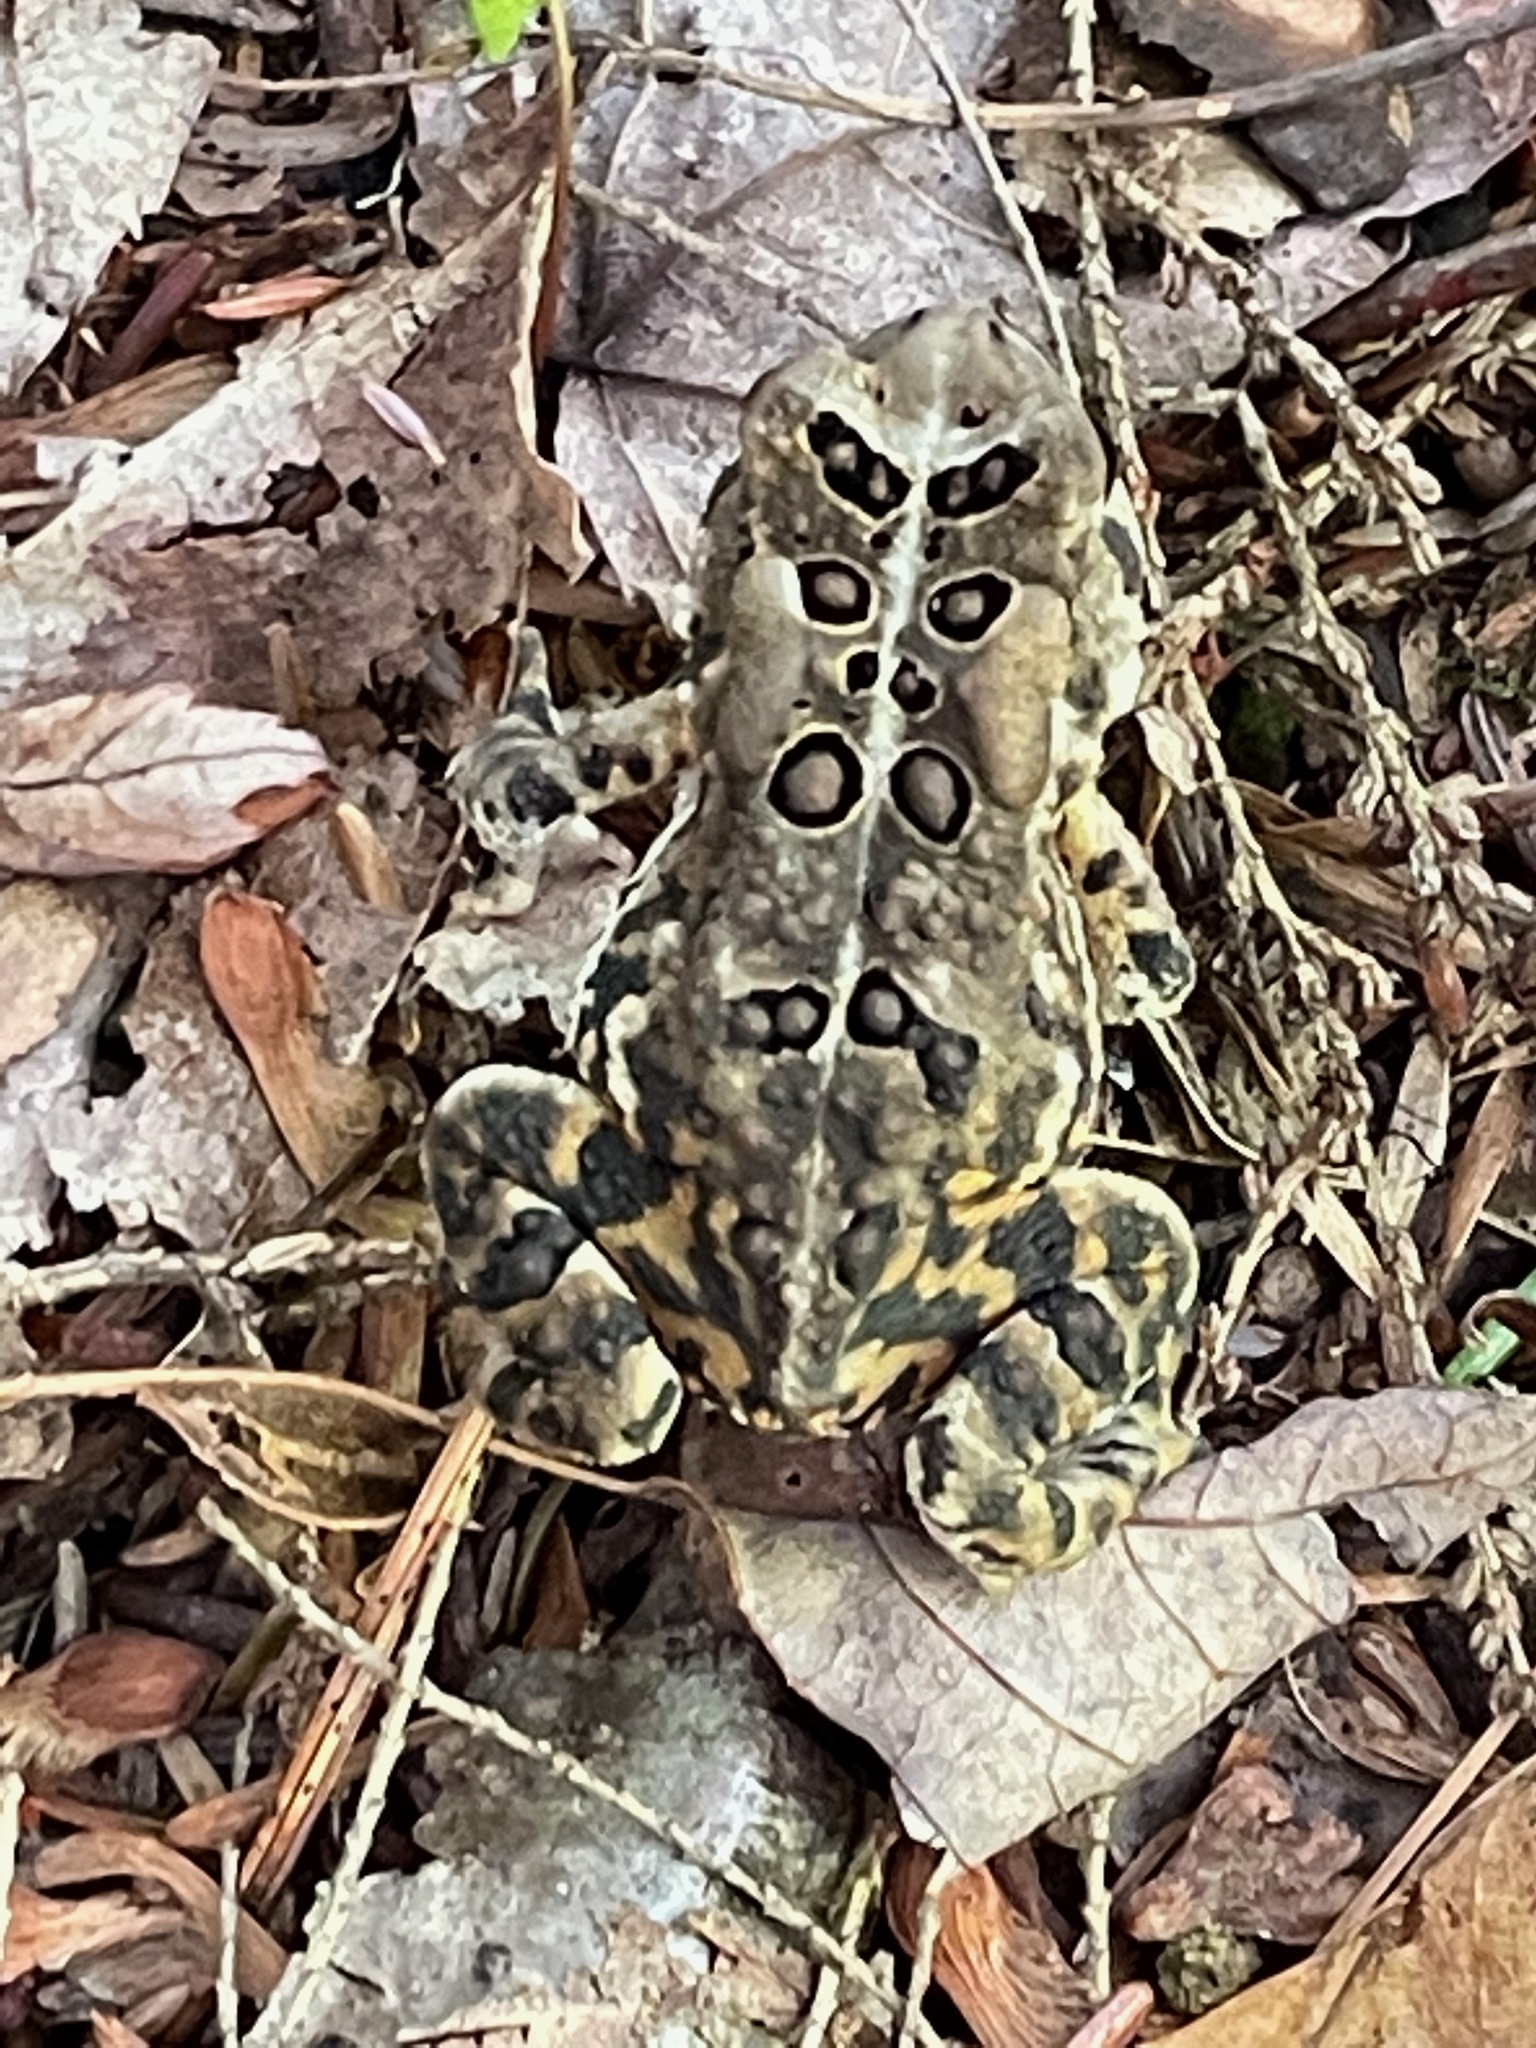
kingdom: Animalia
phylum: Chordata
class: Amphibia
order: Anura
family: Bufonidae
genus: Anaxyrus
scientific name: Anaxyrus americanus
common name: American toad
